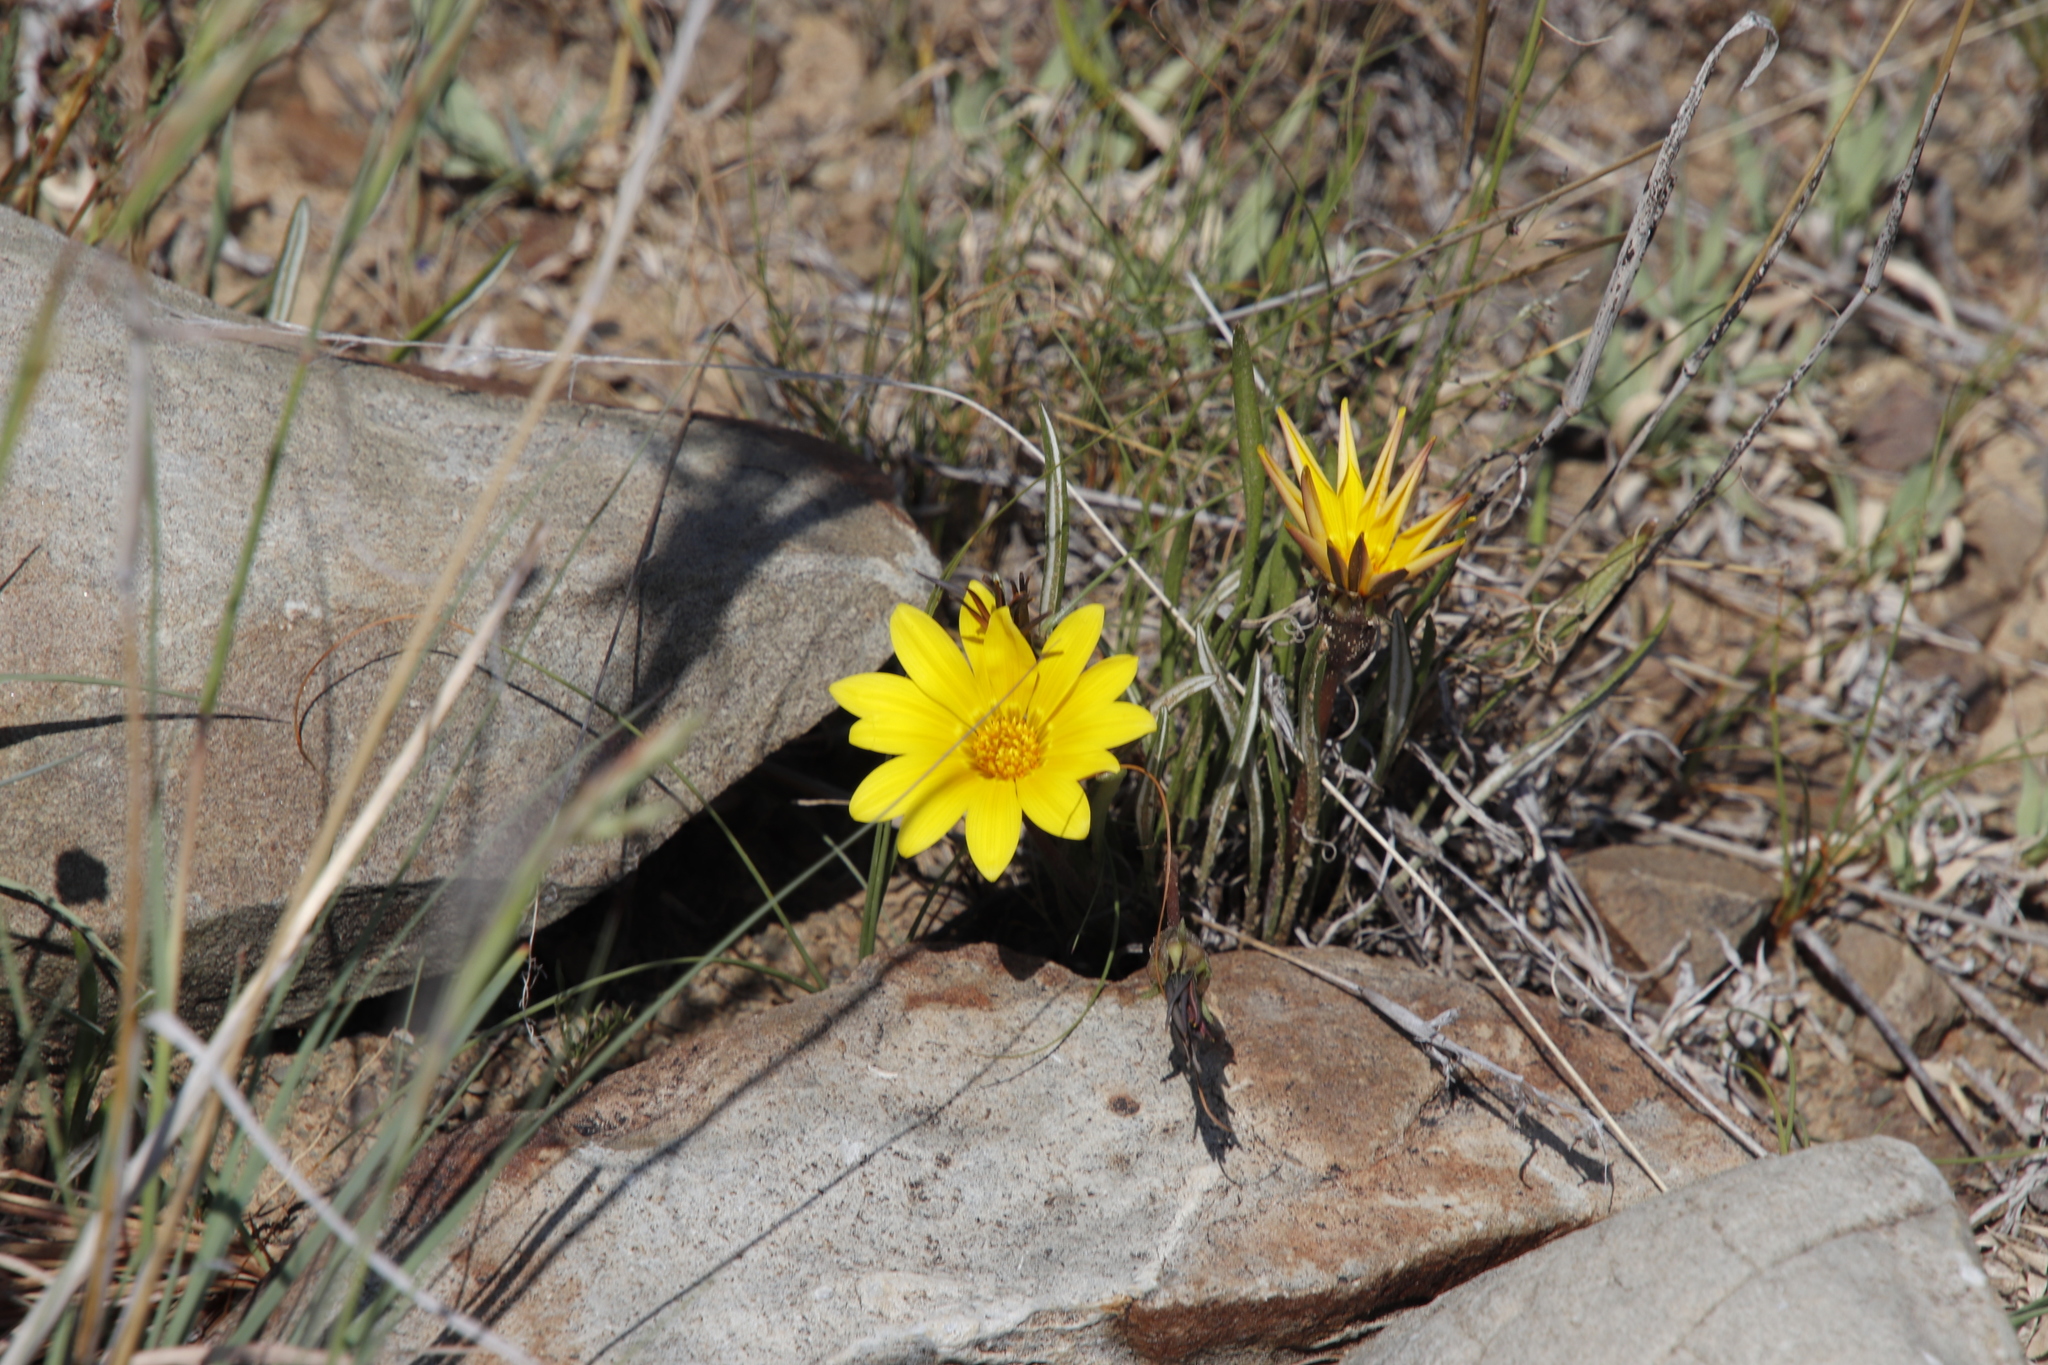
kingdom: Plantae
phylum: Tracheophyta
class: Magnoliopsida
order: Asterales
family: Asteraceae
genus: Gazania
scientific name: Gazania krebsiana
